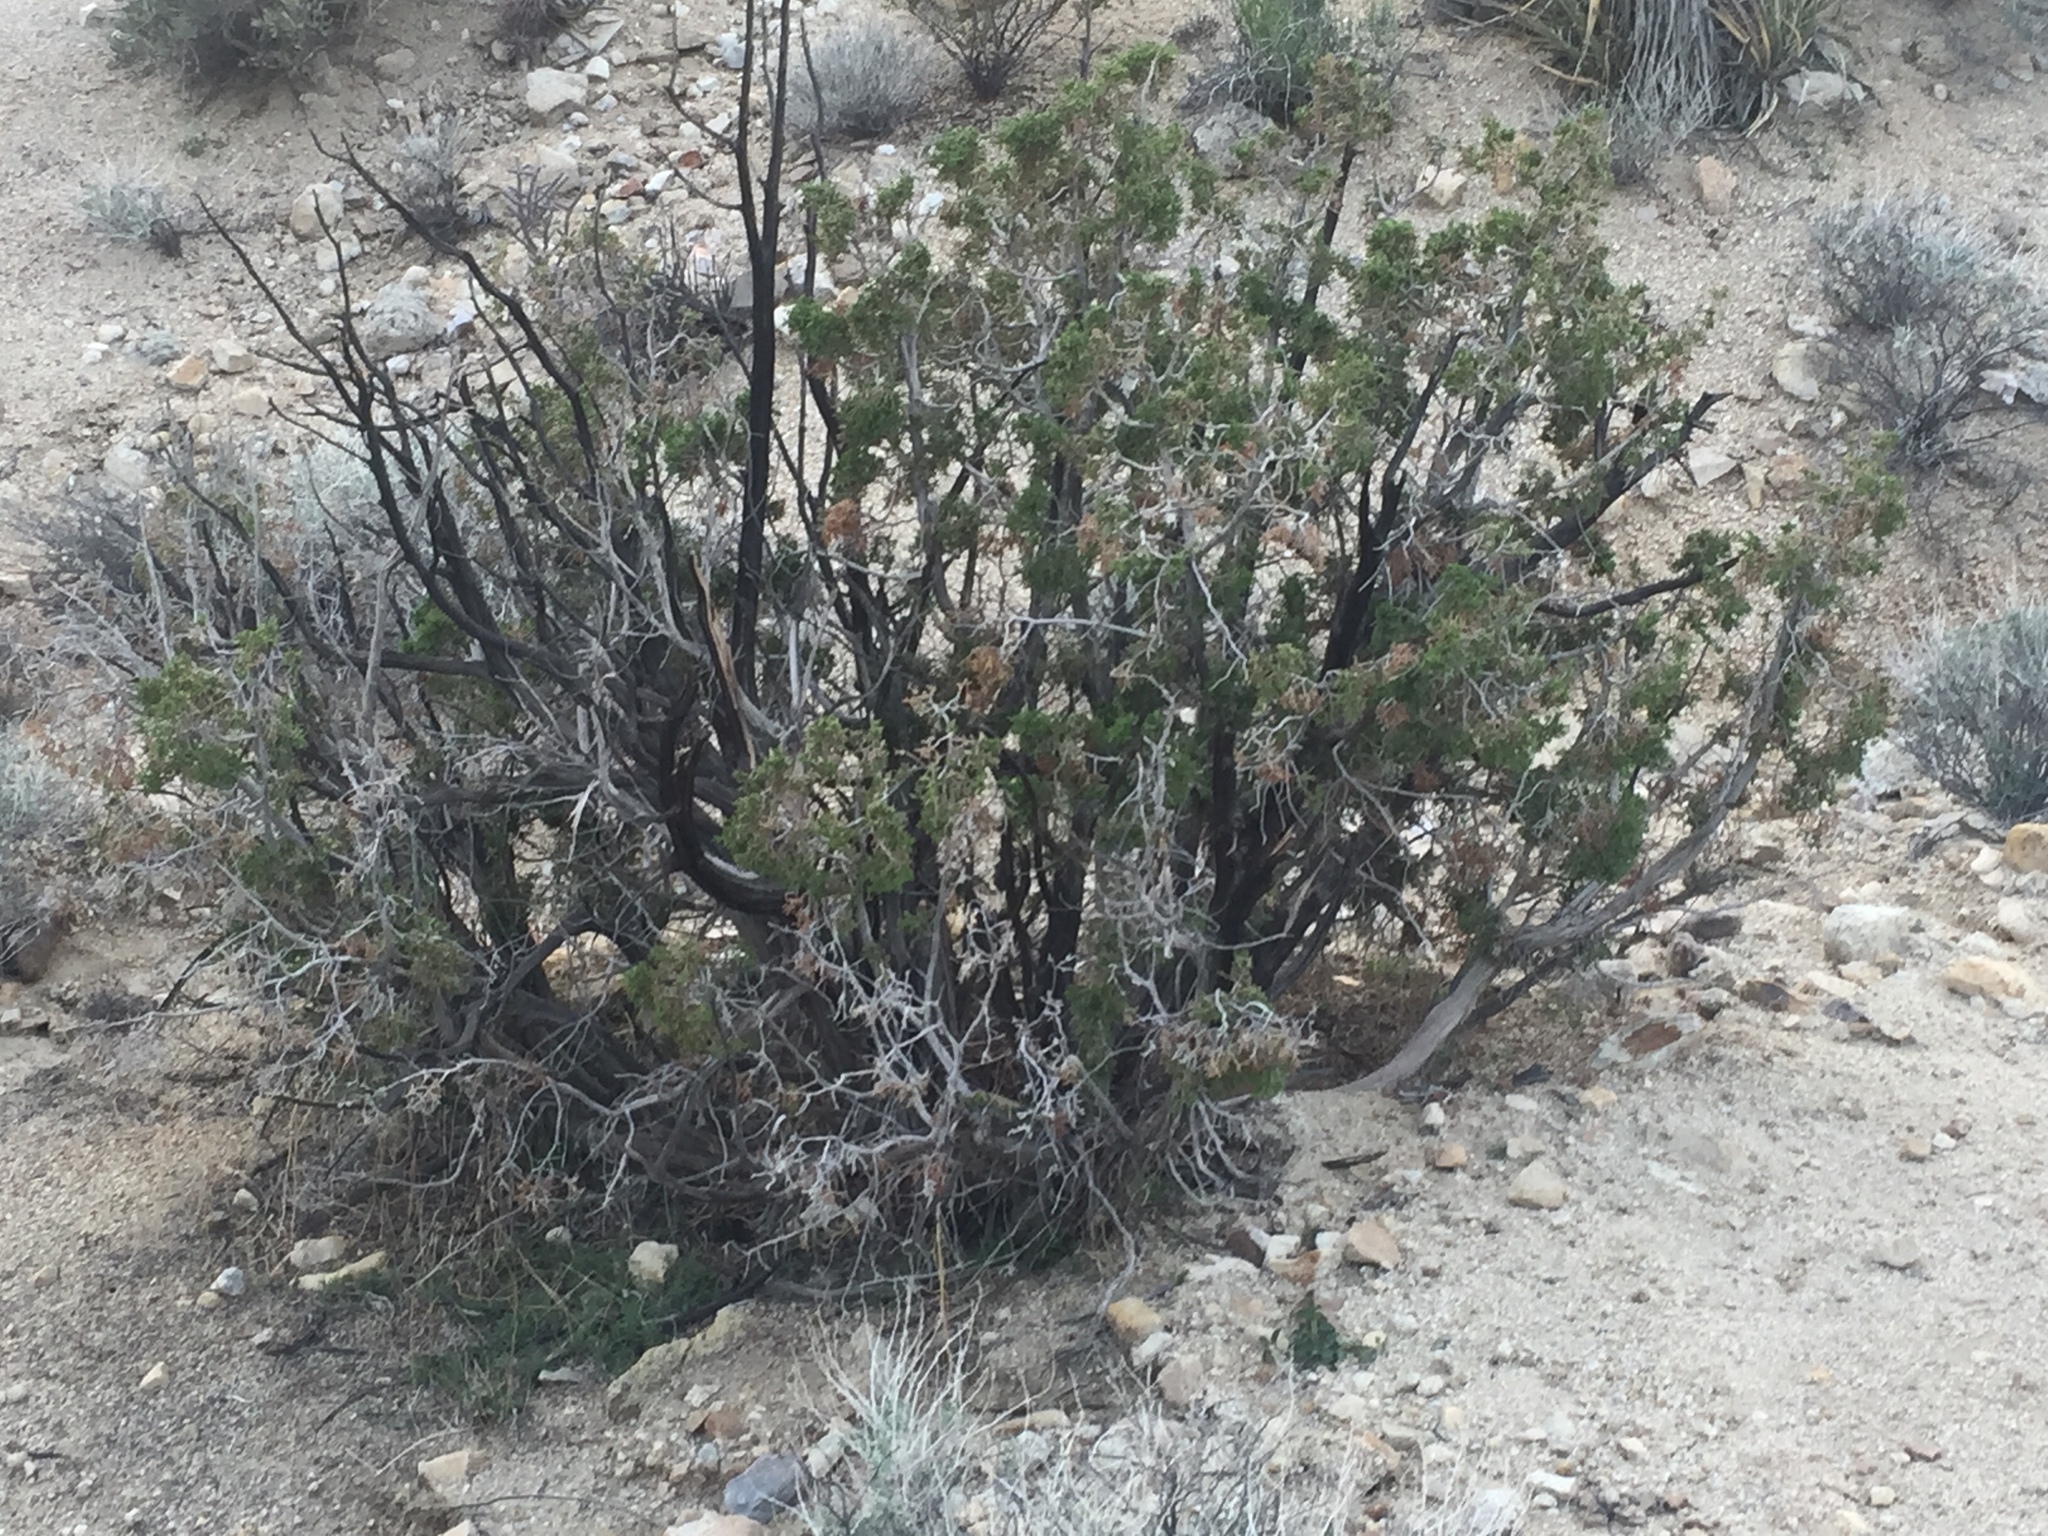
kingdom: Plantae
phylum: Tracheophyta
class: Pinopsida
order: Pinales
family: Cupressaceae
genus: Juniperus
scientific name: Juniperus californica
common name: California juniper
